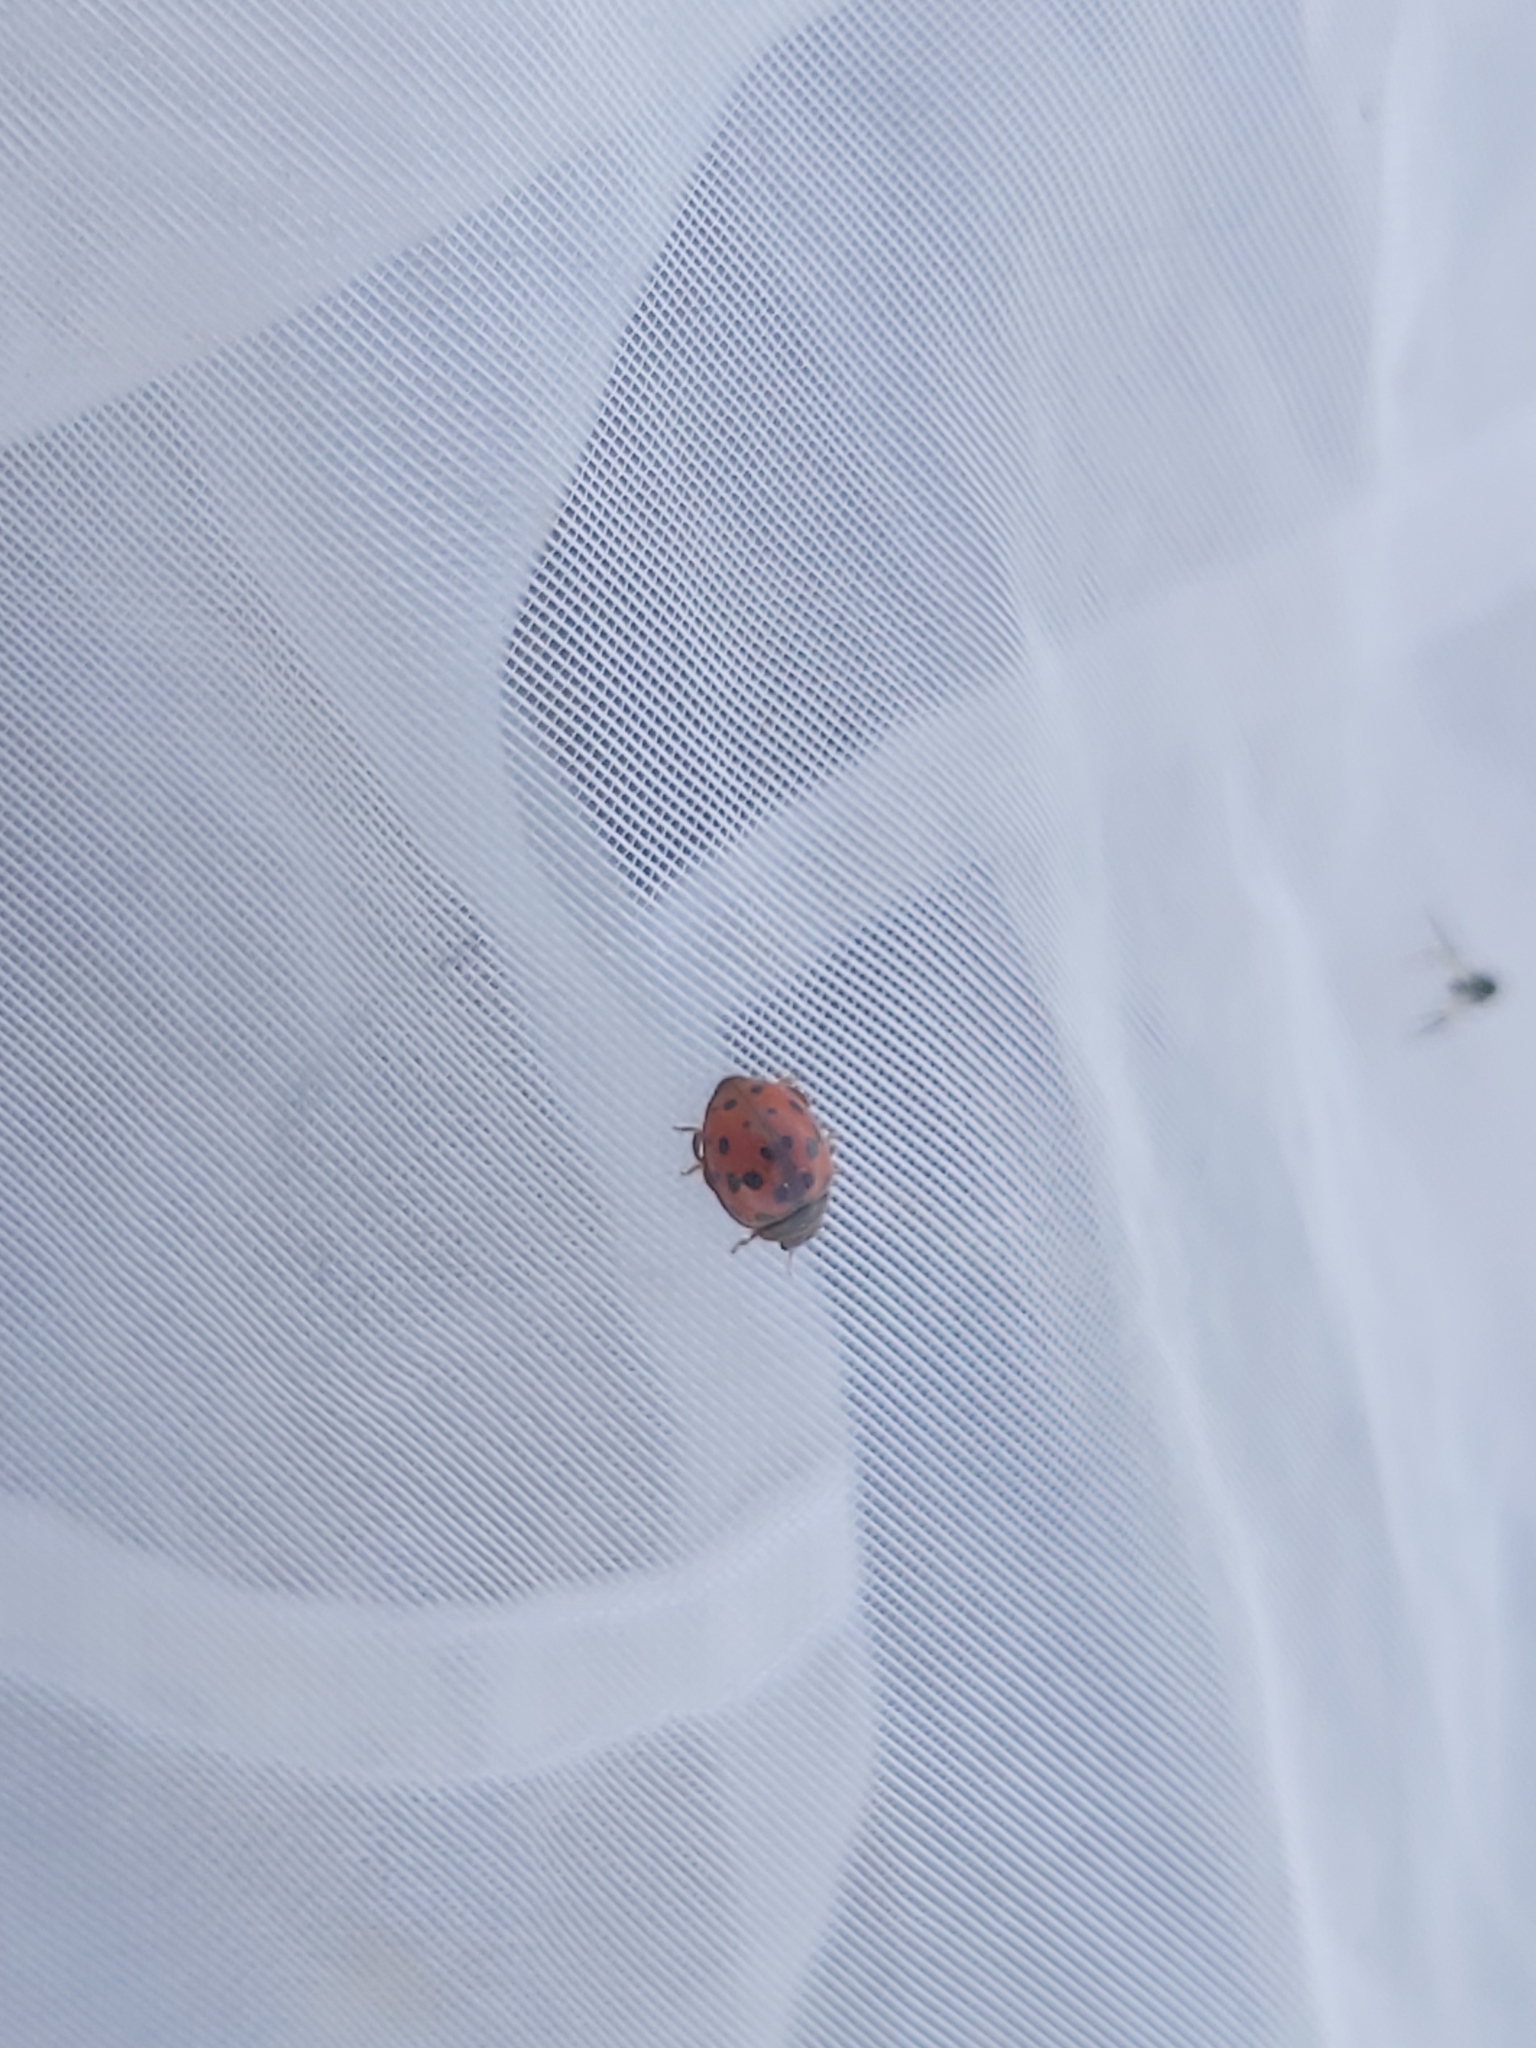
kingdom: Animalia
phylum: Arthropoda
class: Insecta
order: Coleoptera
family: Coccinellidae
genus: Subcoccinella
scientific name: Subcoccinella vigintiquatuorpunctata
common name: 24-spot ladybird
